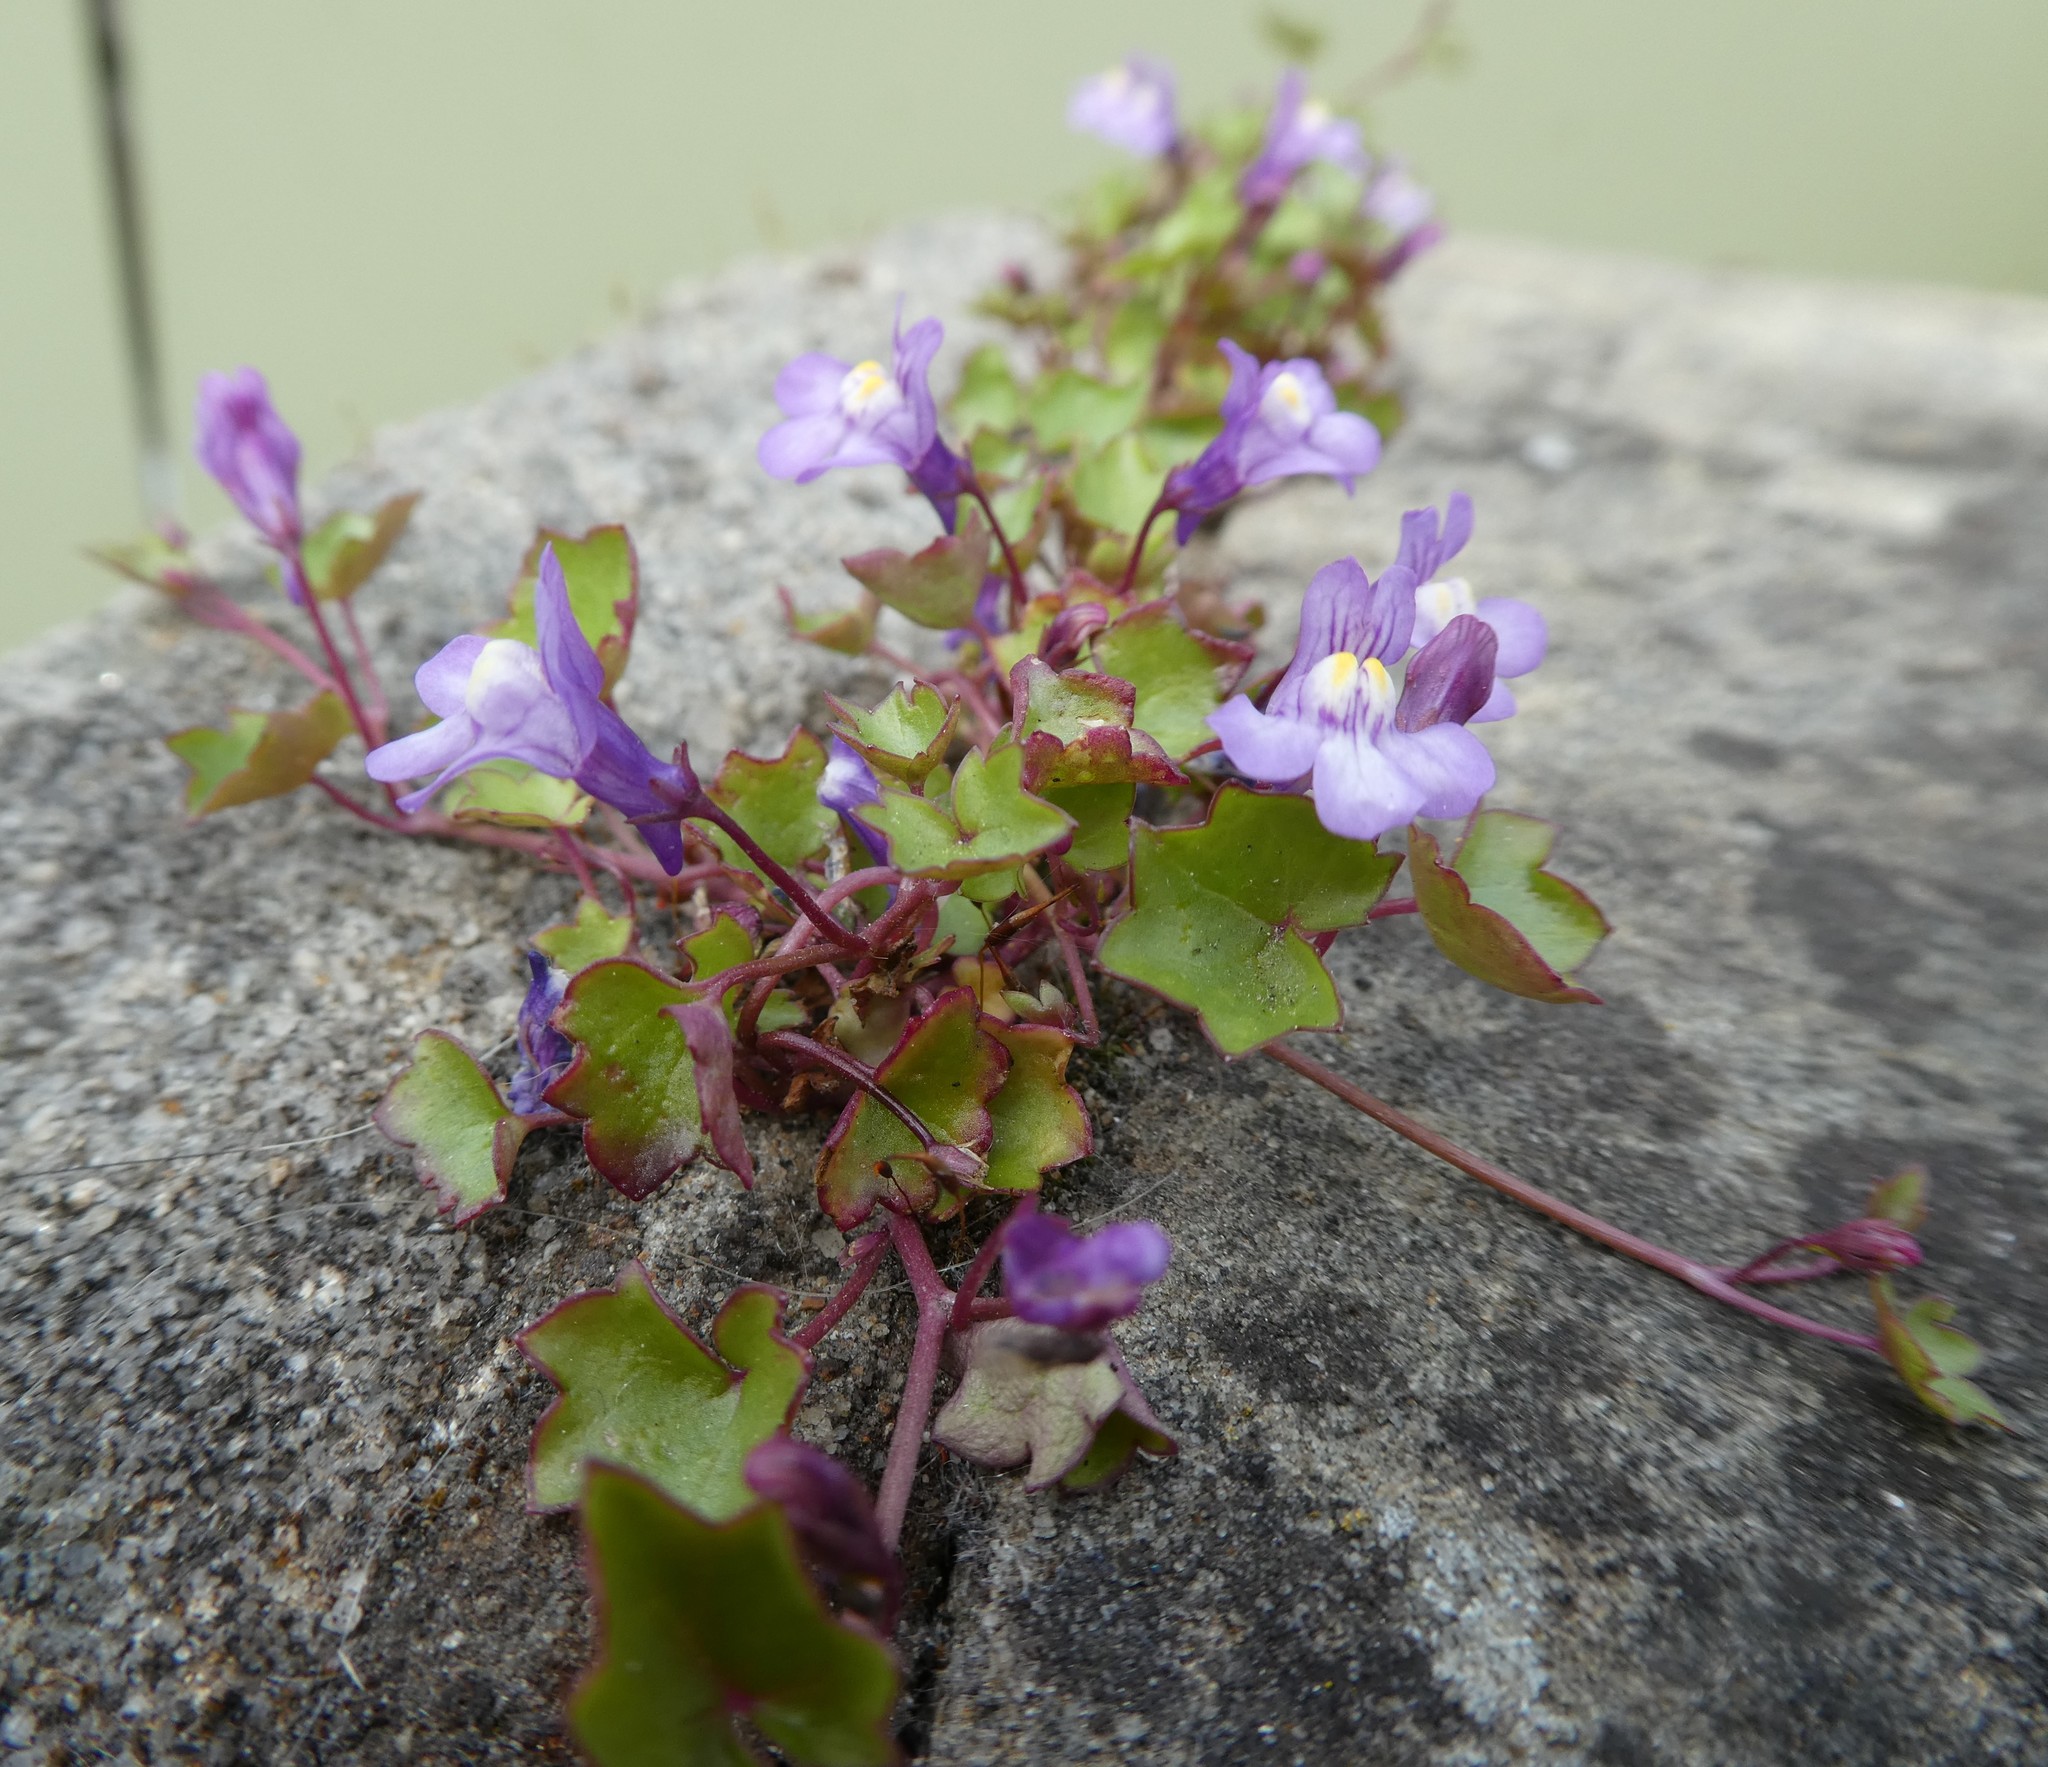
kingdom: Plantae
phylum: Tracheophyta
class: Magnoliopsida
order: Lamiales
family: Plantaginaceae
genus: Cymbalaria
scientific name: Cymbalaria muralis
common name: Ivy-leaved toadflax
